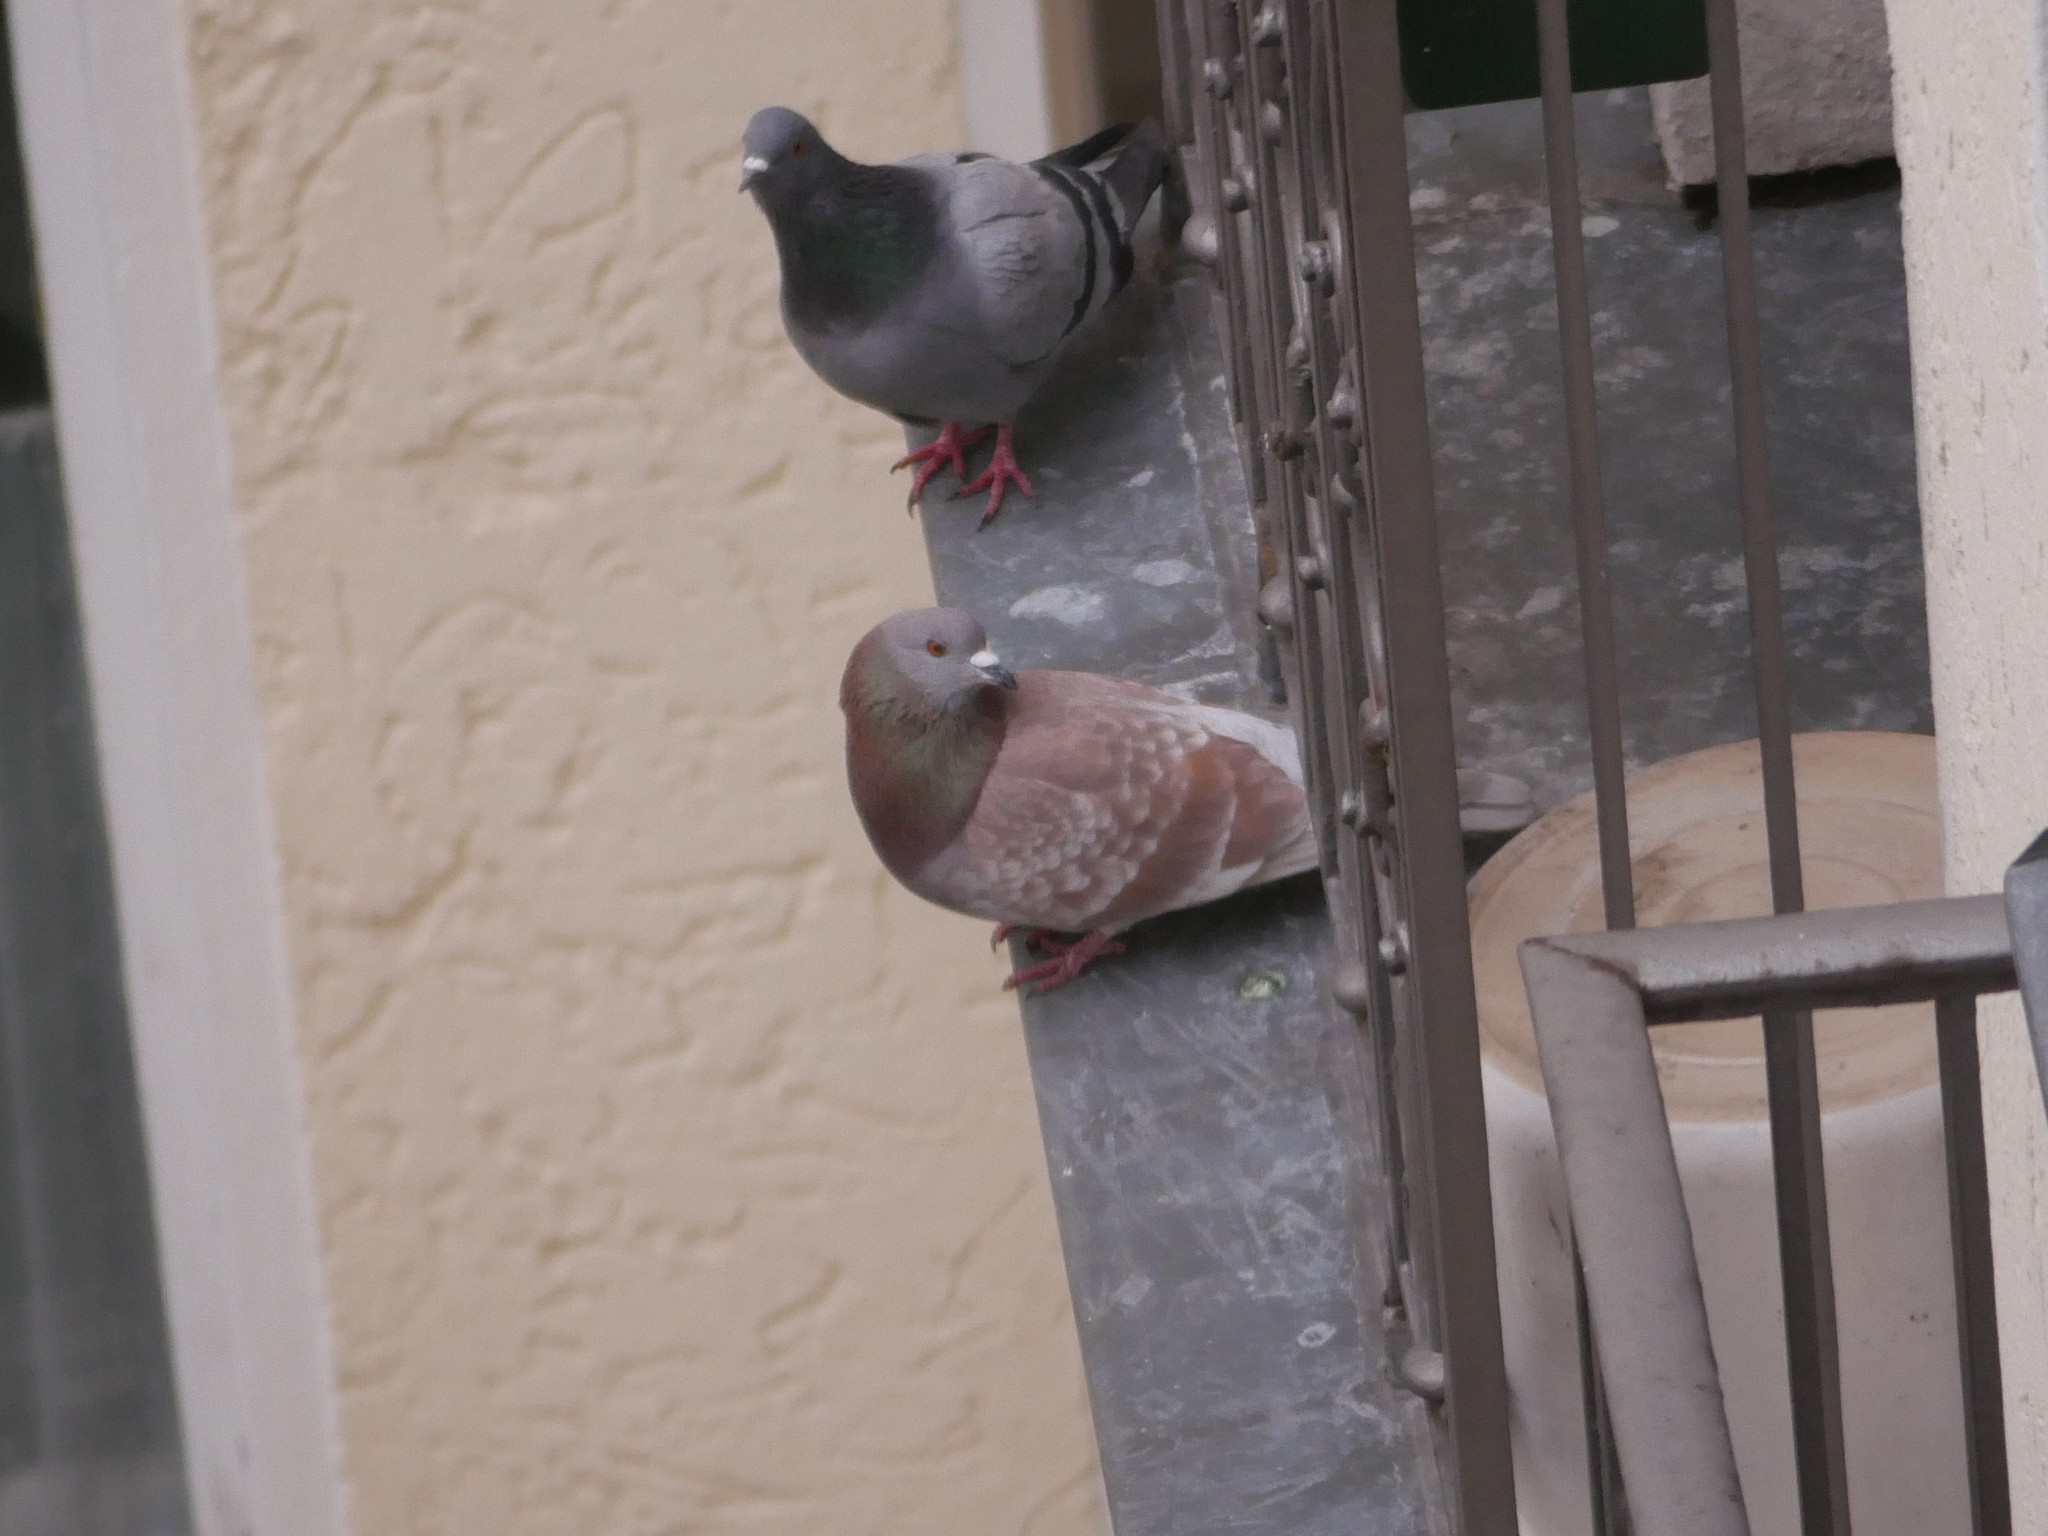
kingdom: Animalia
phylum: Chordata
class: Aves
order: Columbiformes
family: Columbidae
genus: Columba
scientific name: Columba livia
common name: Rock pigeon
